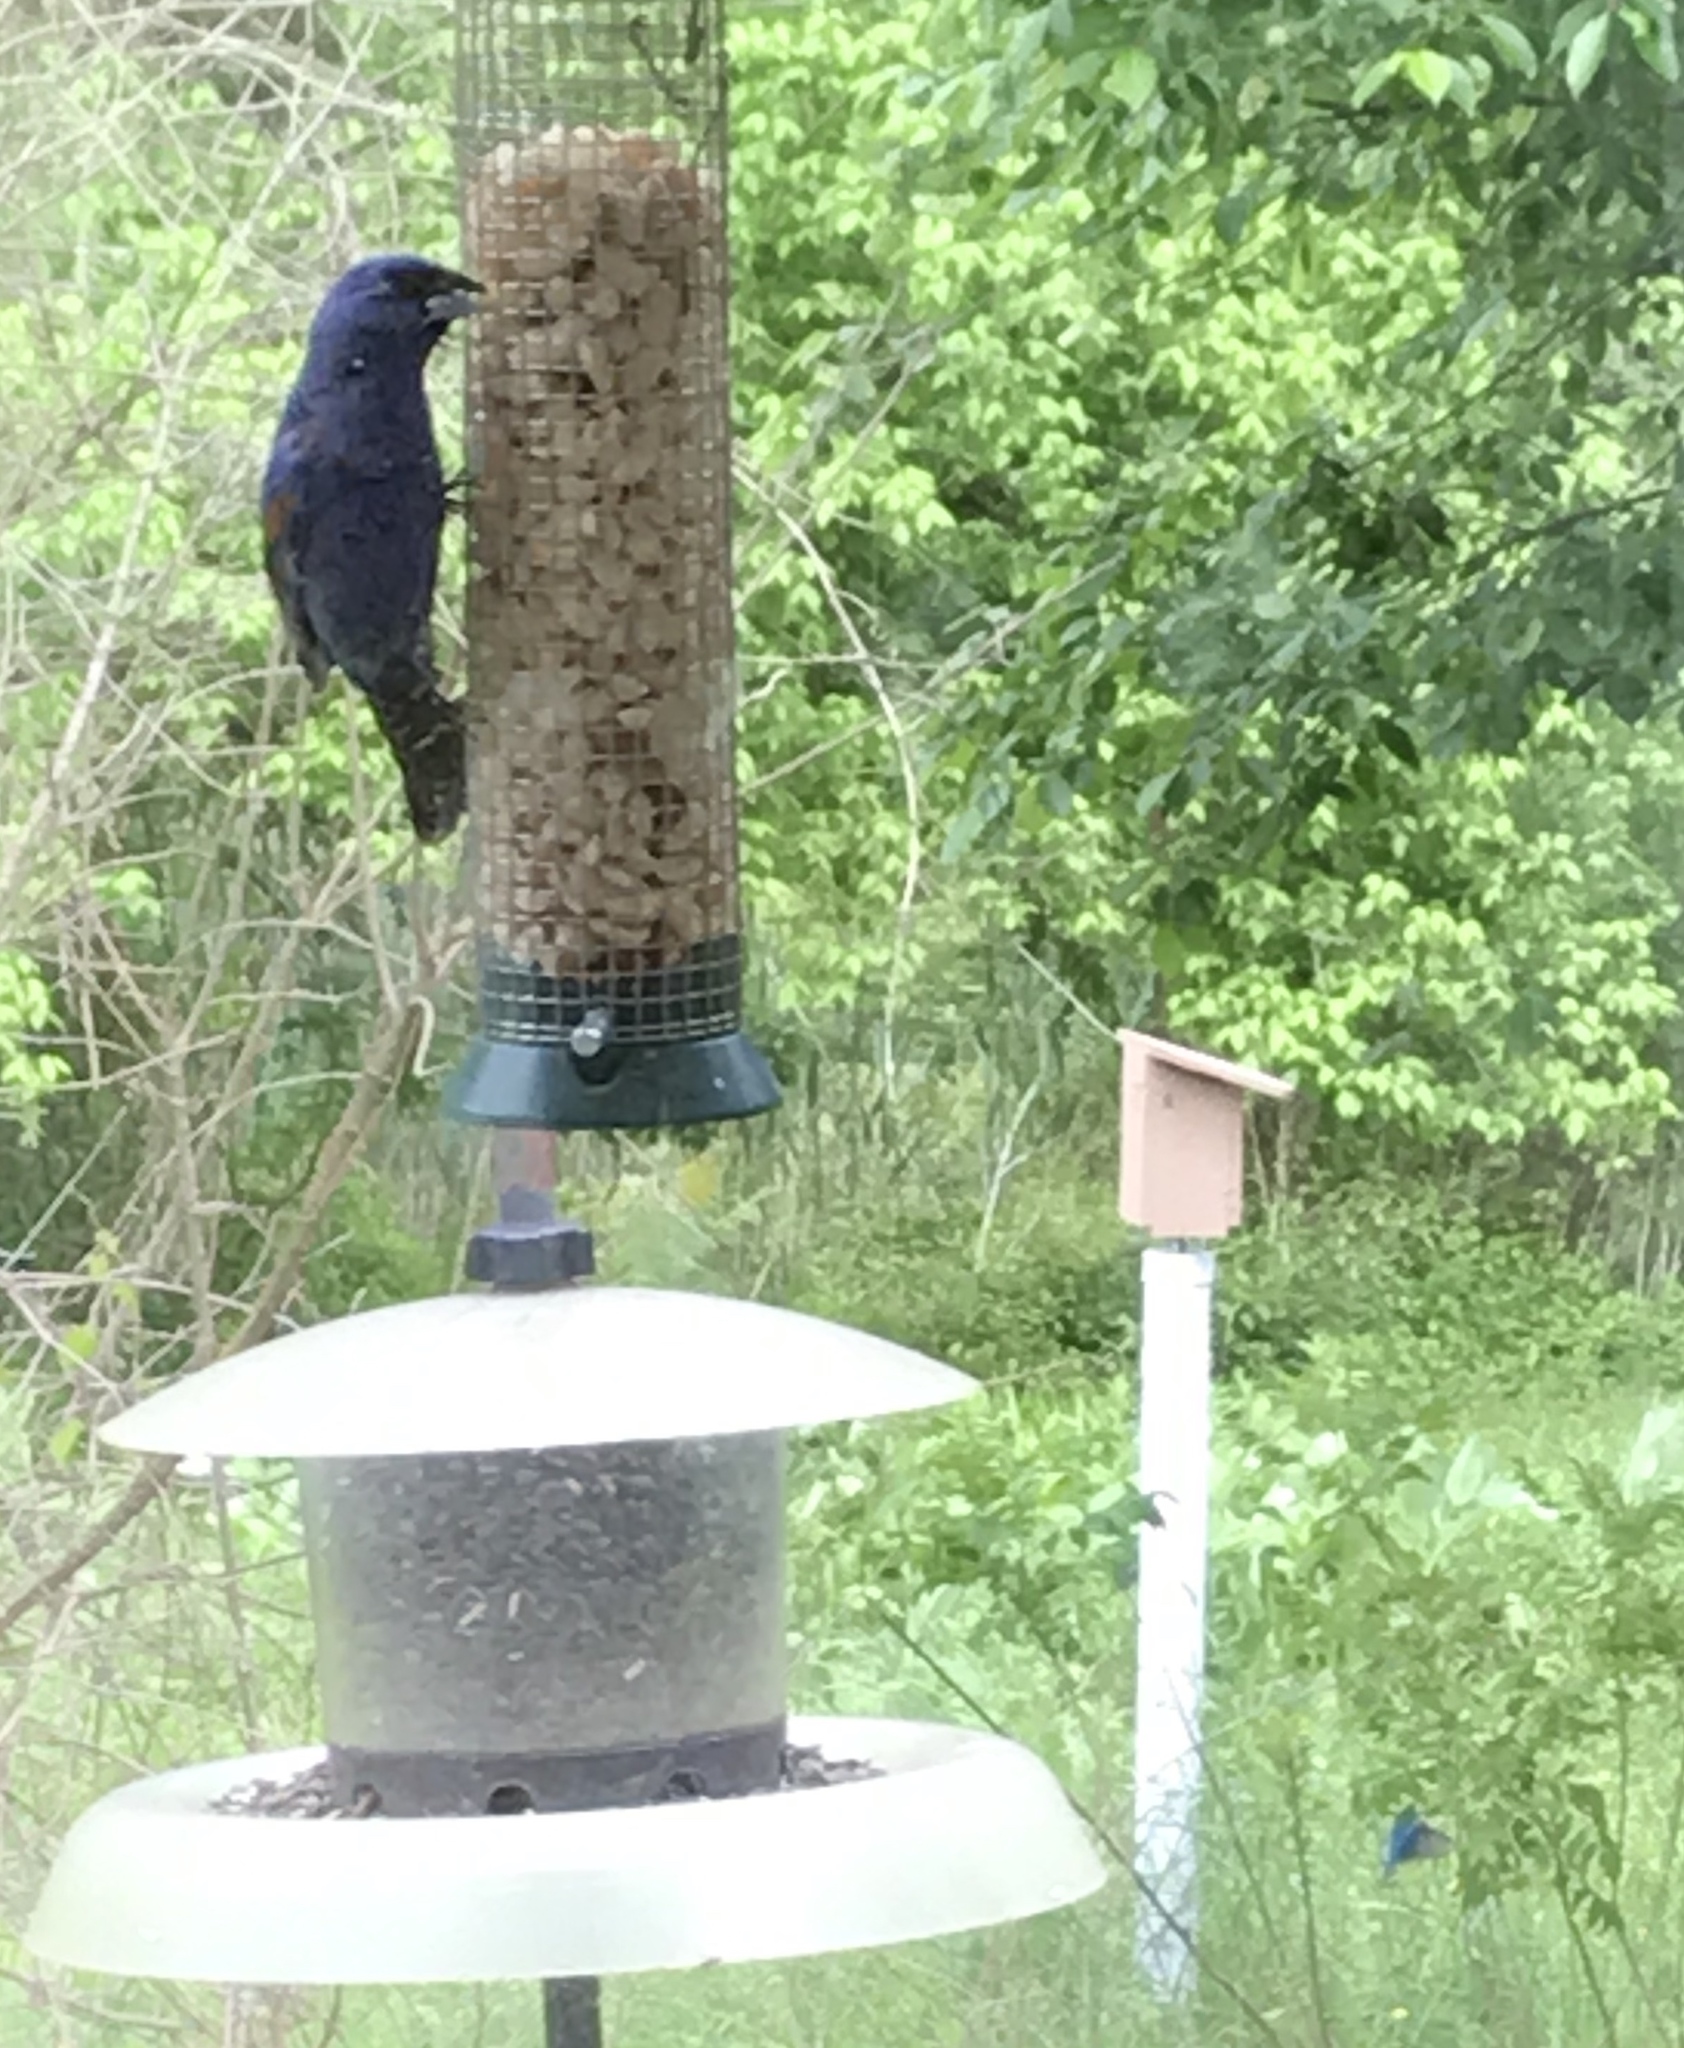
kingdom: Animalia
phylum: Chordata
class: Aves
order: Passeriformes
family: Cardinalidae
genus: Passerina
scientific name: Passerina caerulea
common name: Blue grosbeak
